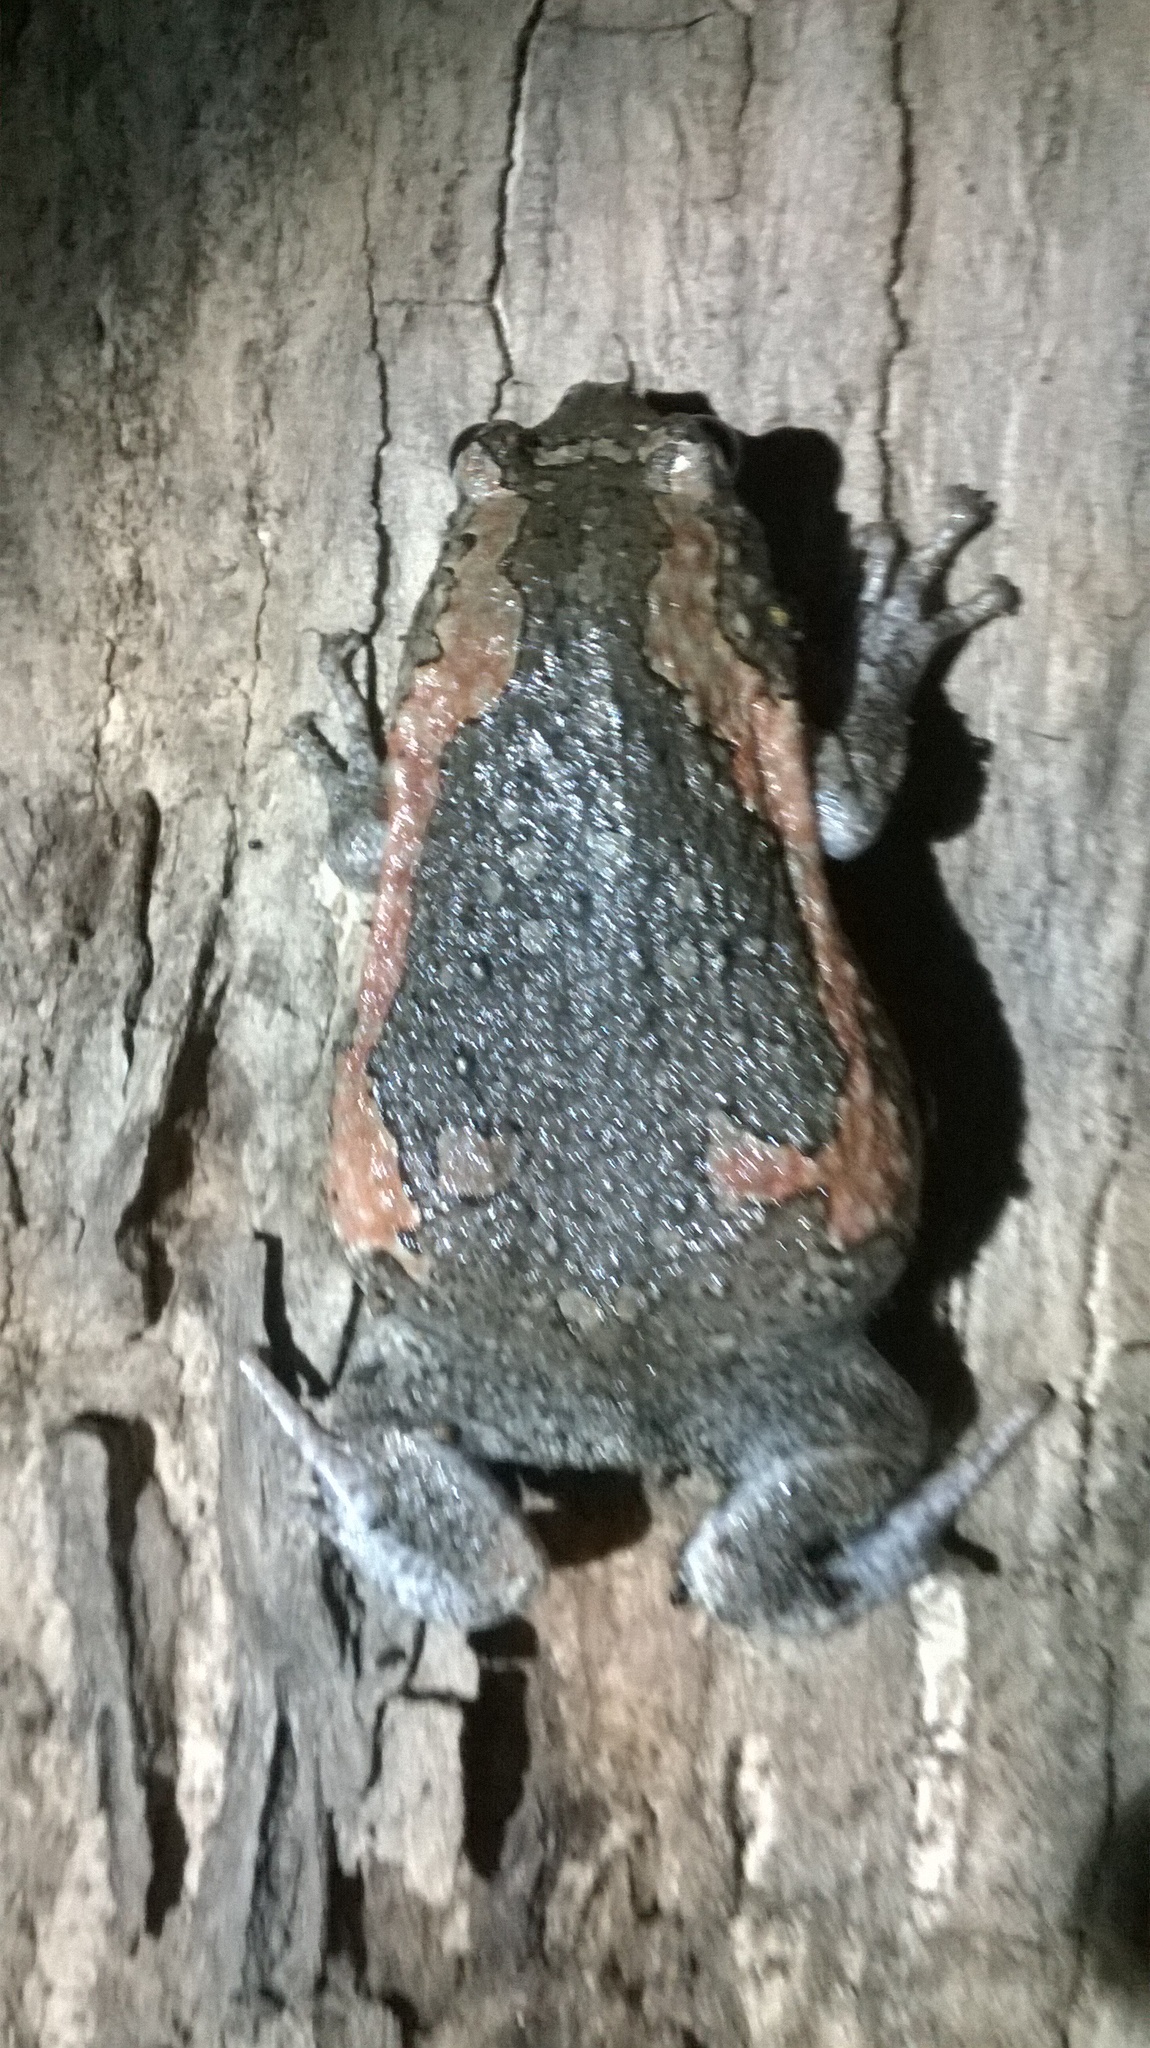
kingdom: Animalia
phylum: Chordata
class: Amphibia
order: Anura
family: Microhylidae
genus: Uperodon
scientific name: Uperodon taprobanicus
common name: Ceylon kaloula
